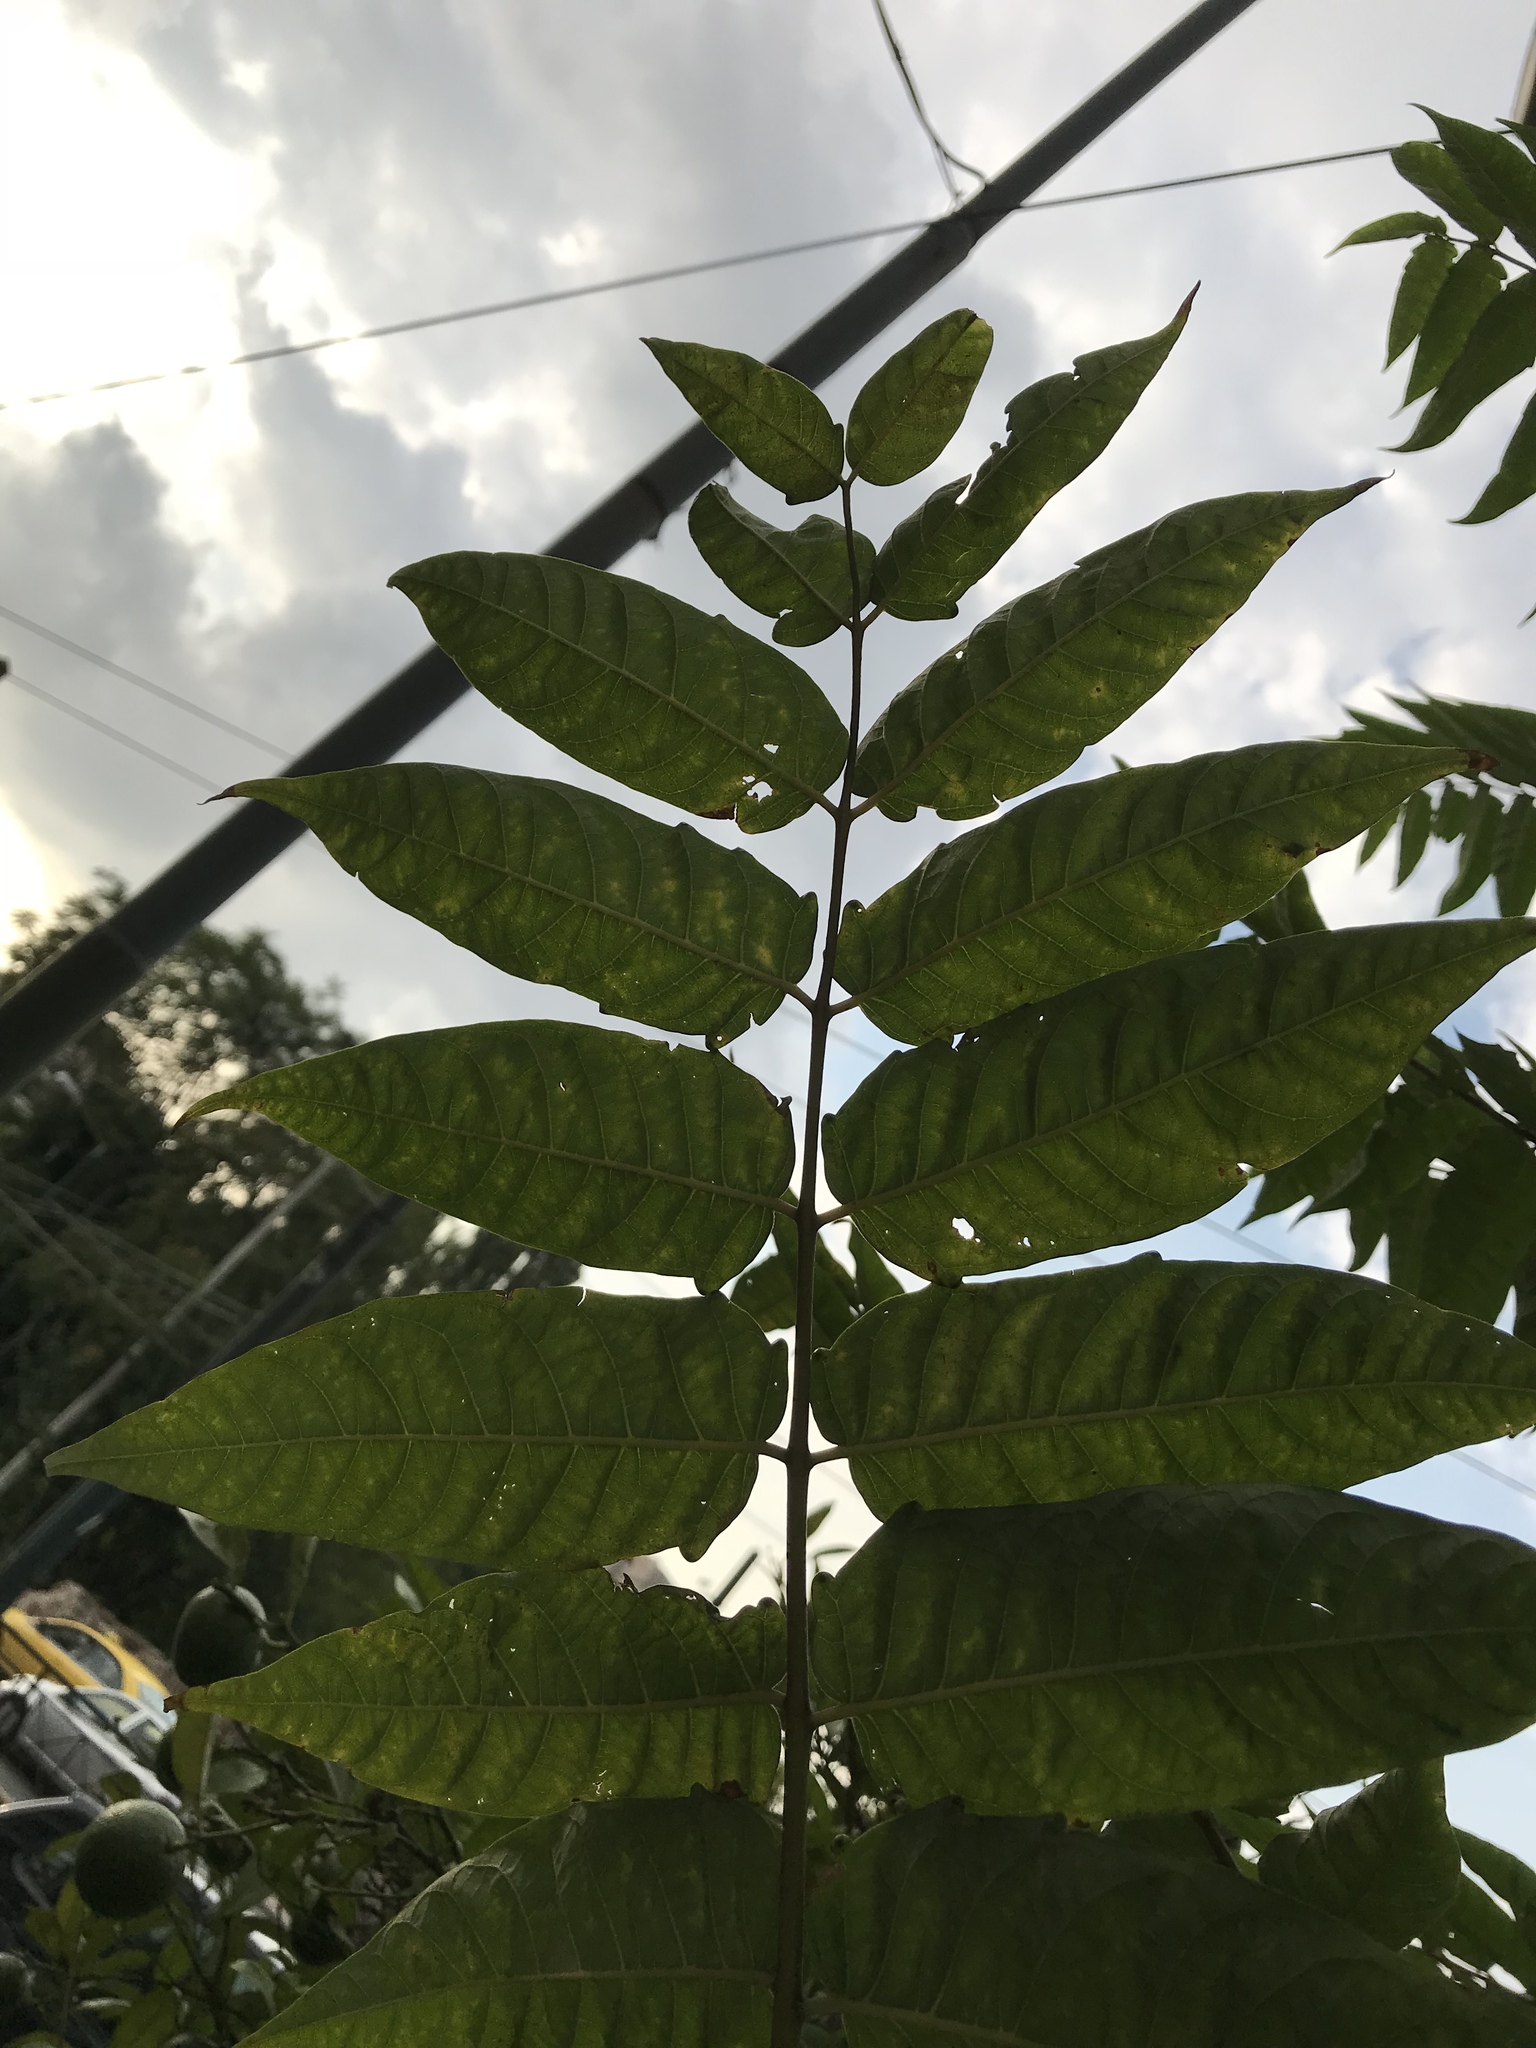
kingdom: Plantae
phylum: Tracheophyta
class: Magnoliopsida
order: Sapindales
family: Simaroubaceae
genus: Ailanthus
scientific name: Ailanthus altissima
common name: Tree-of-heaven
